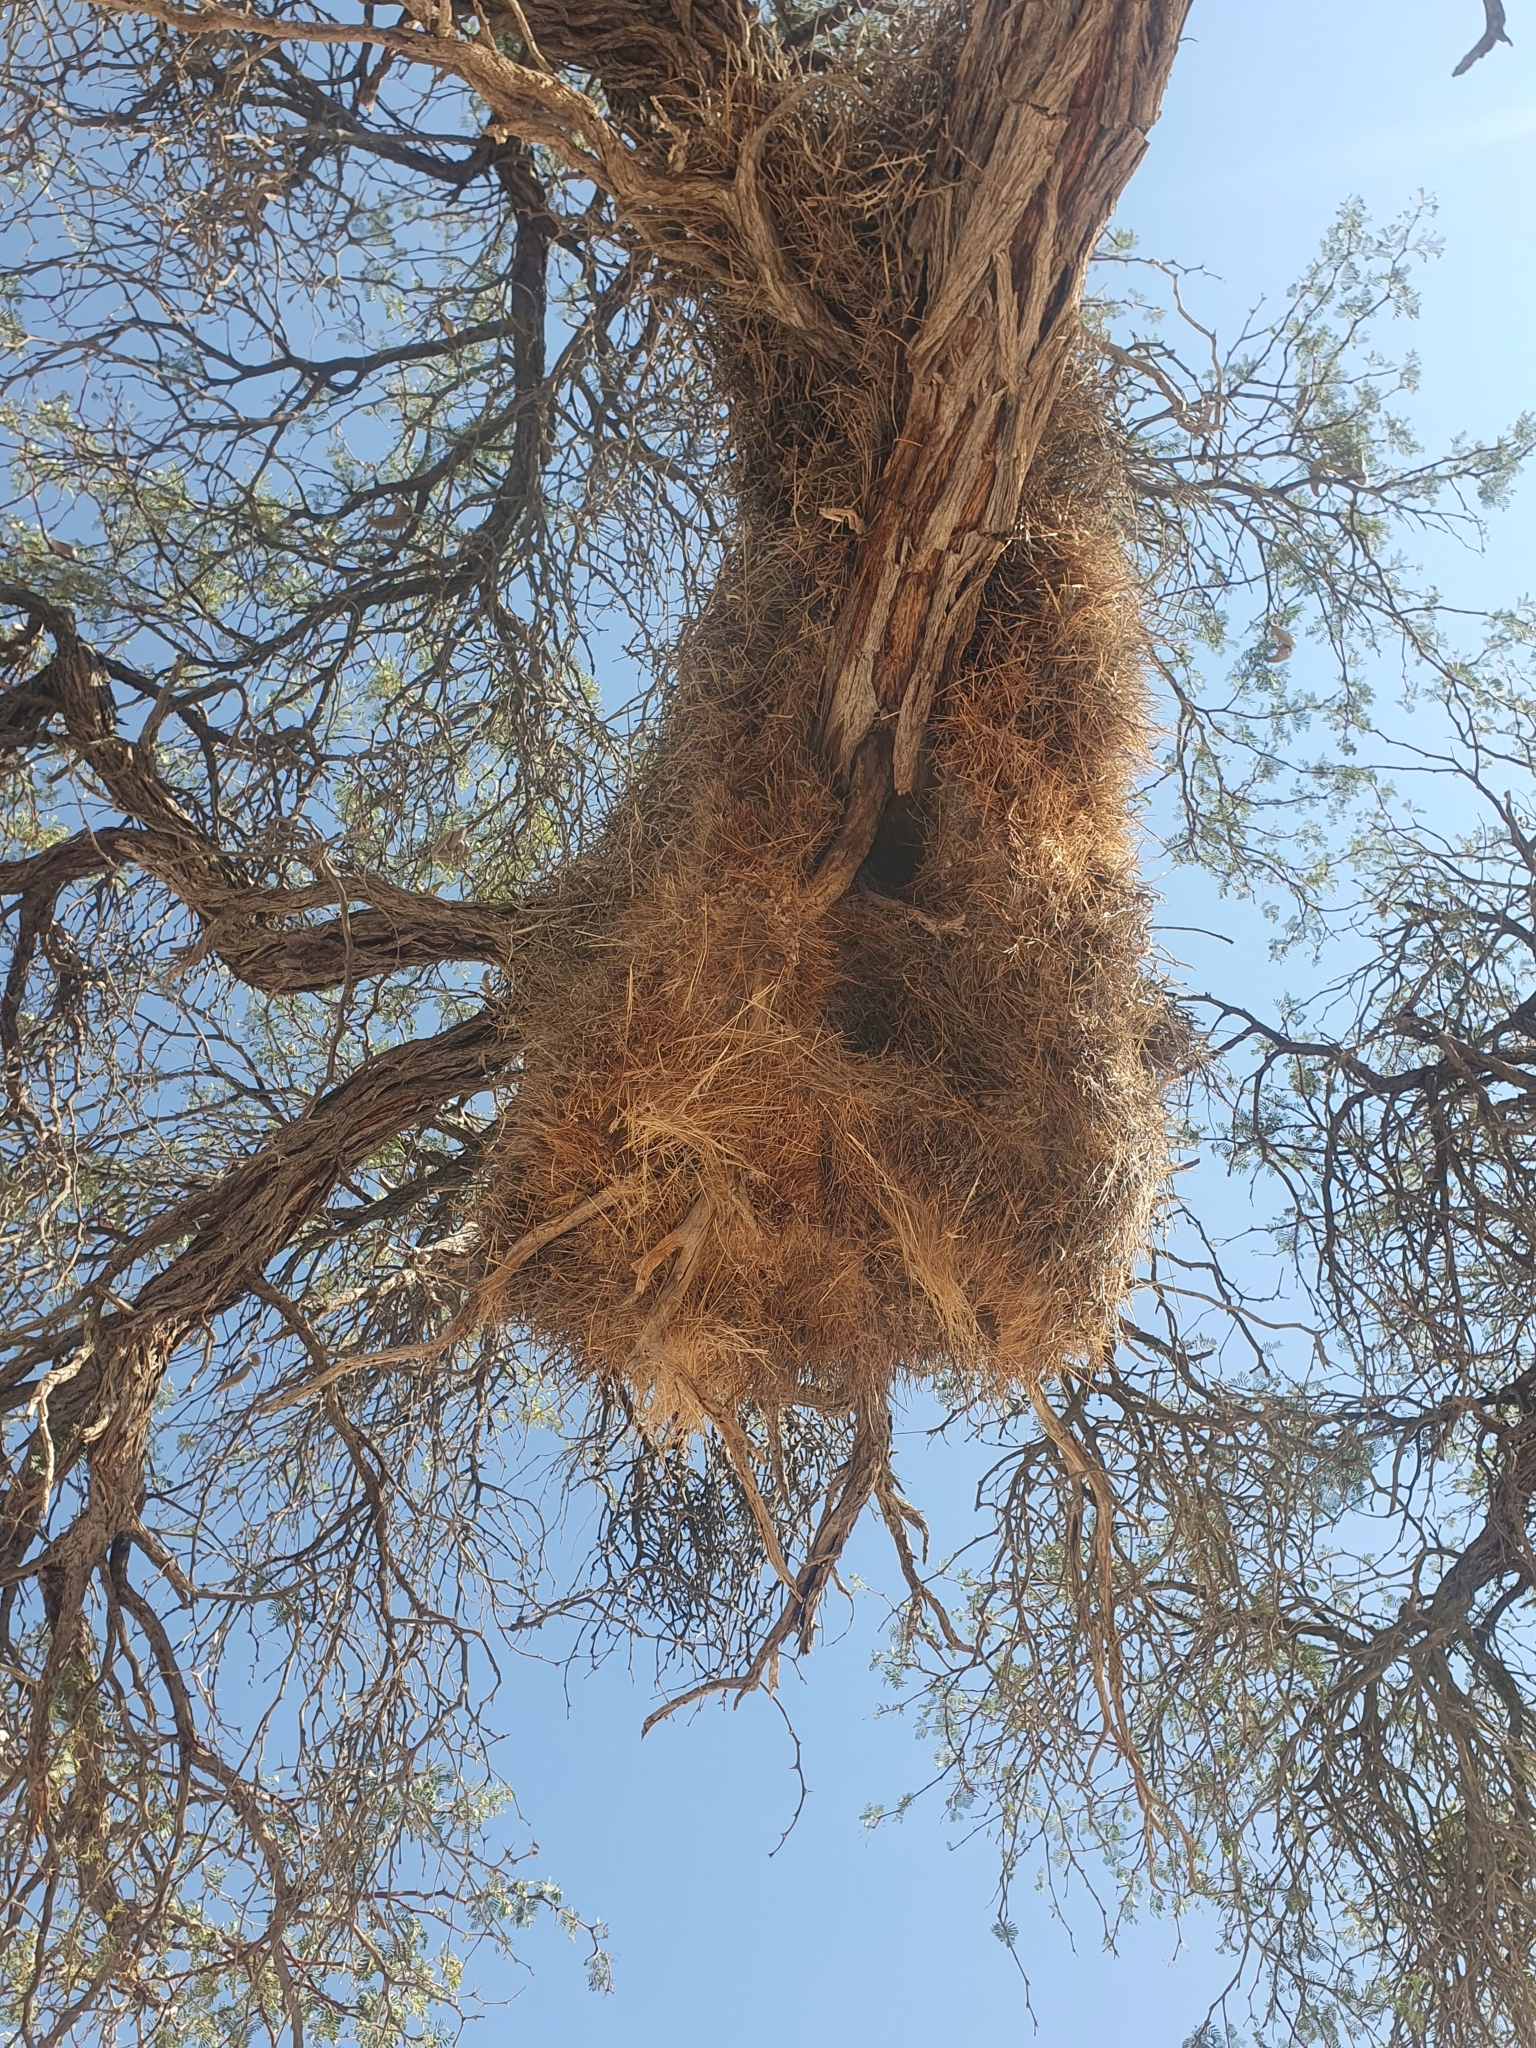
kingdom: Animalia
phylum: Chordata
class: Aves
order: Passeriformes
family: Passeridae
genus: Philetairus
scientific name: Philetairus socius
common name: Sociable weaver
